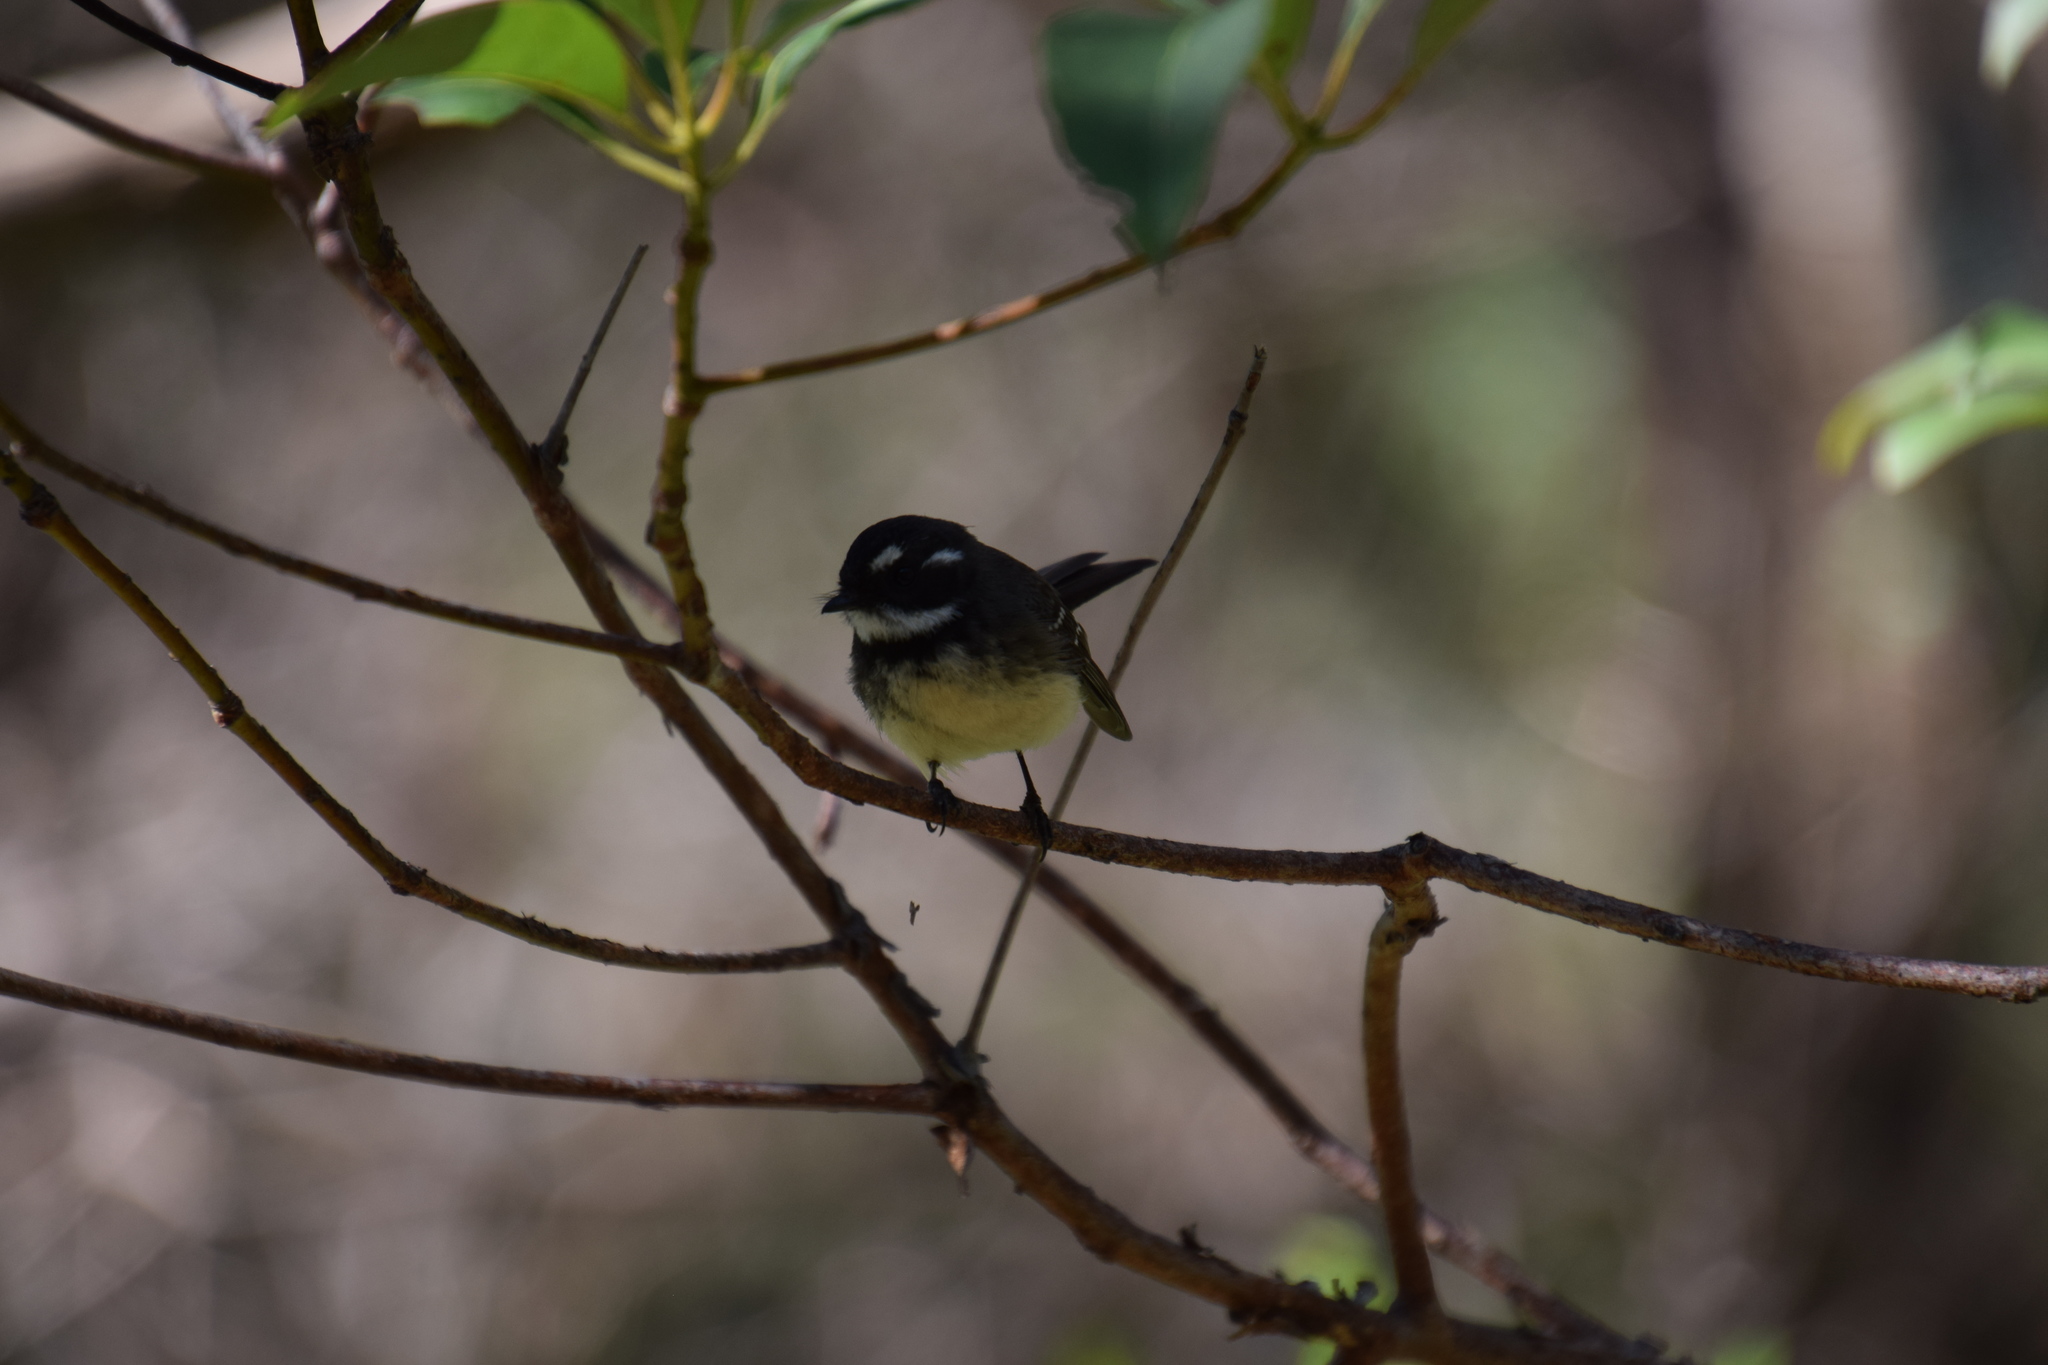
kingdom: Animalia
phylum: Chordata
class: Aves
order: Passeriformes
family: Rhipiduridae
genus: Rhipidura
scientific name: Rhipidura albiscapa
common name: Grey fantail
